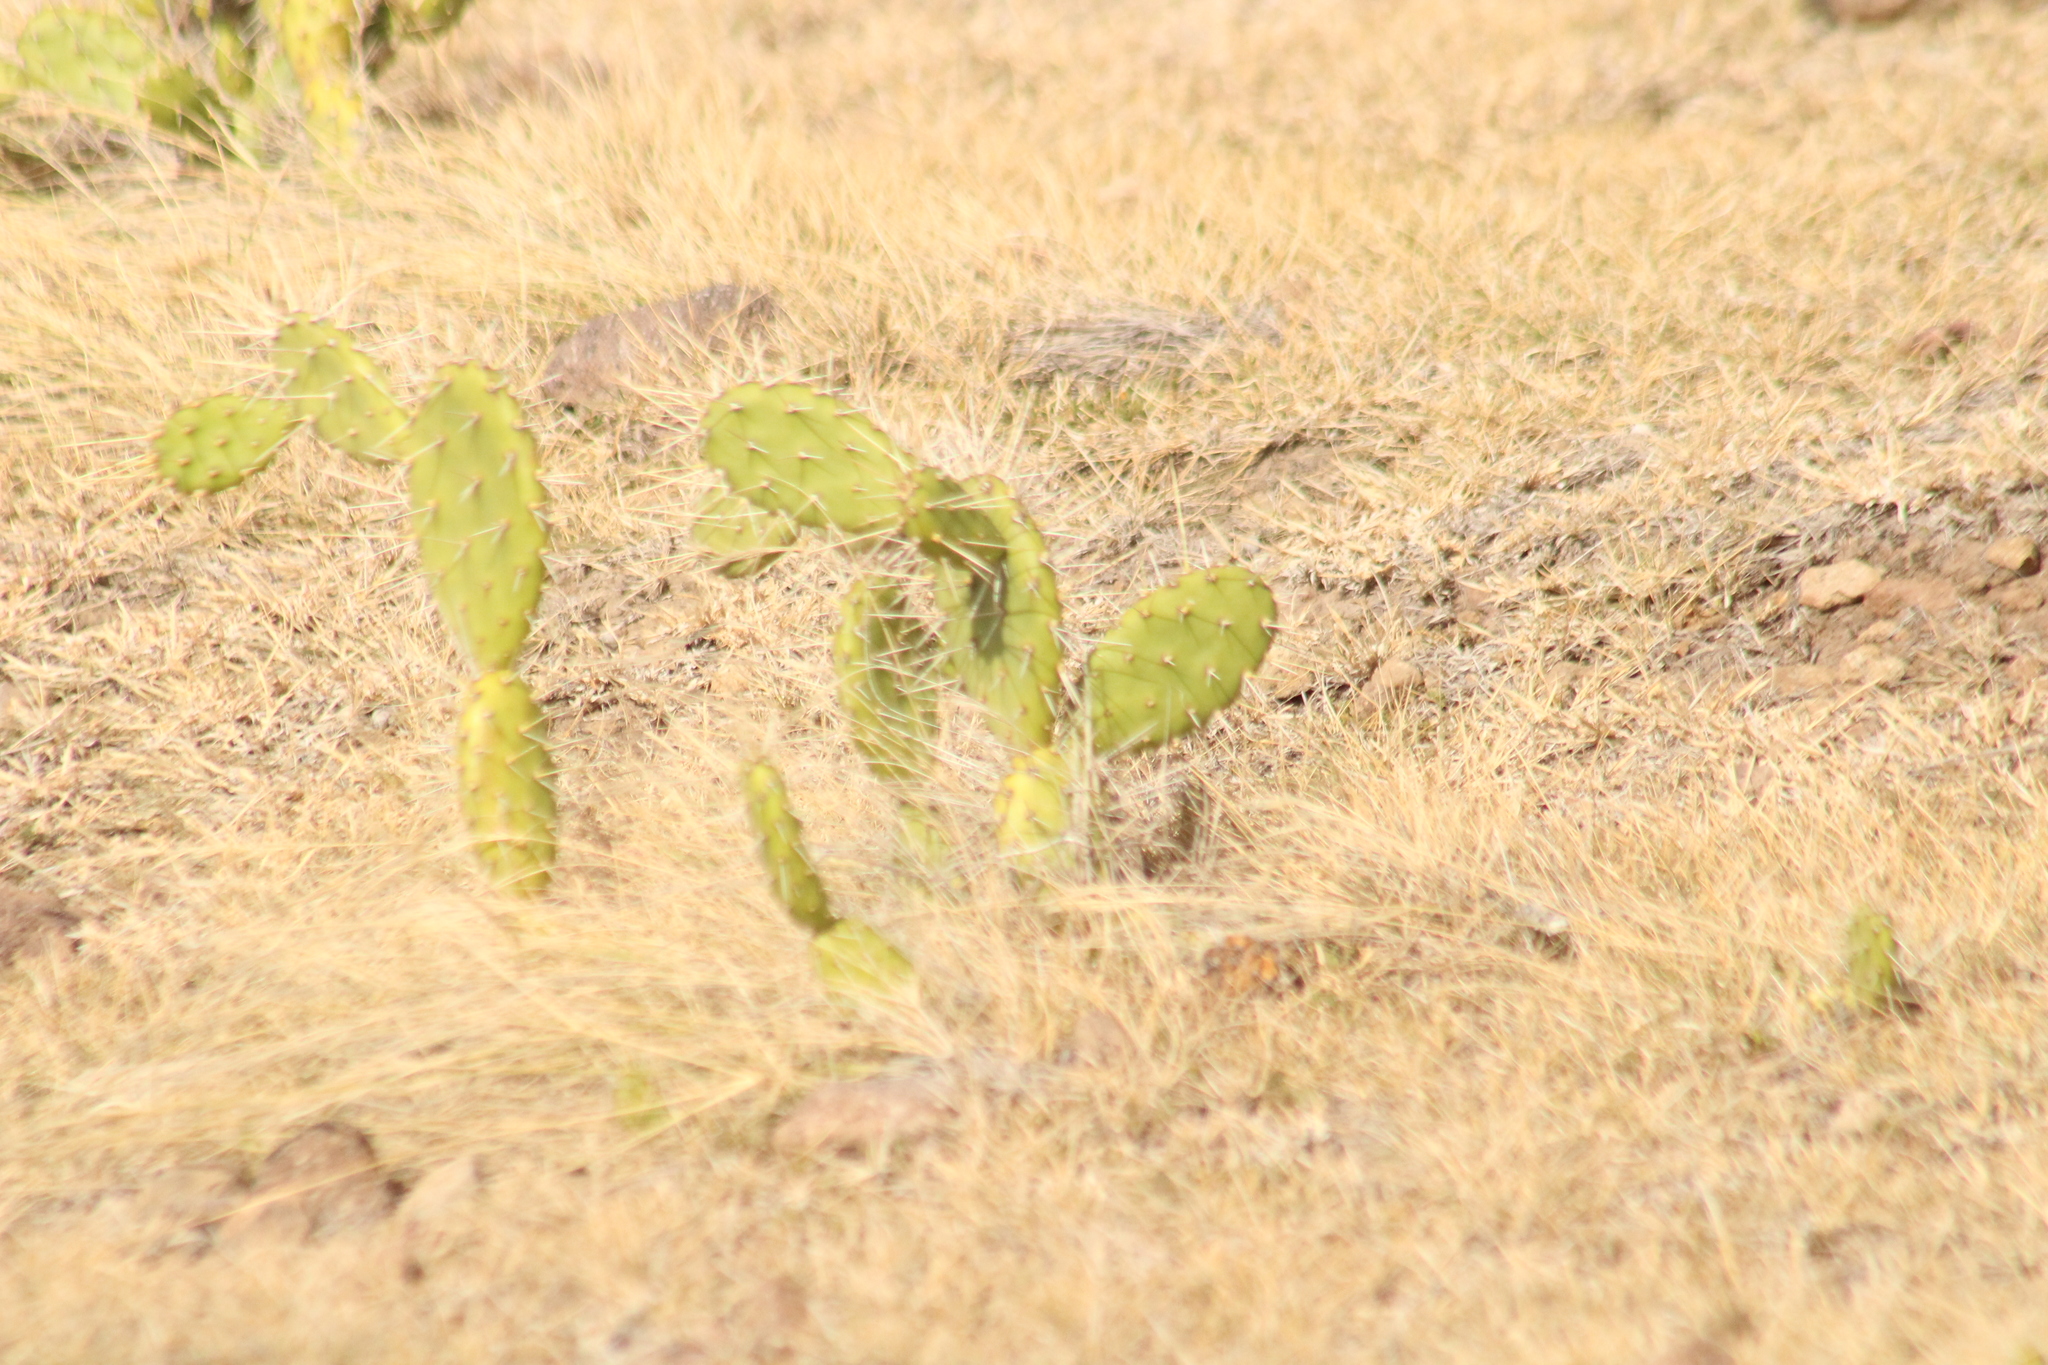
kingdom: Plantae
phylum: Tracheophyta
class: Magnoliopsida
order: Caryophyllales
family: Cactaceae
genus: Opuntia
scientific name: Opuntia triacanthos
